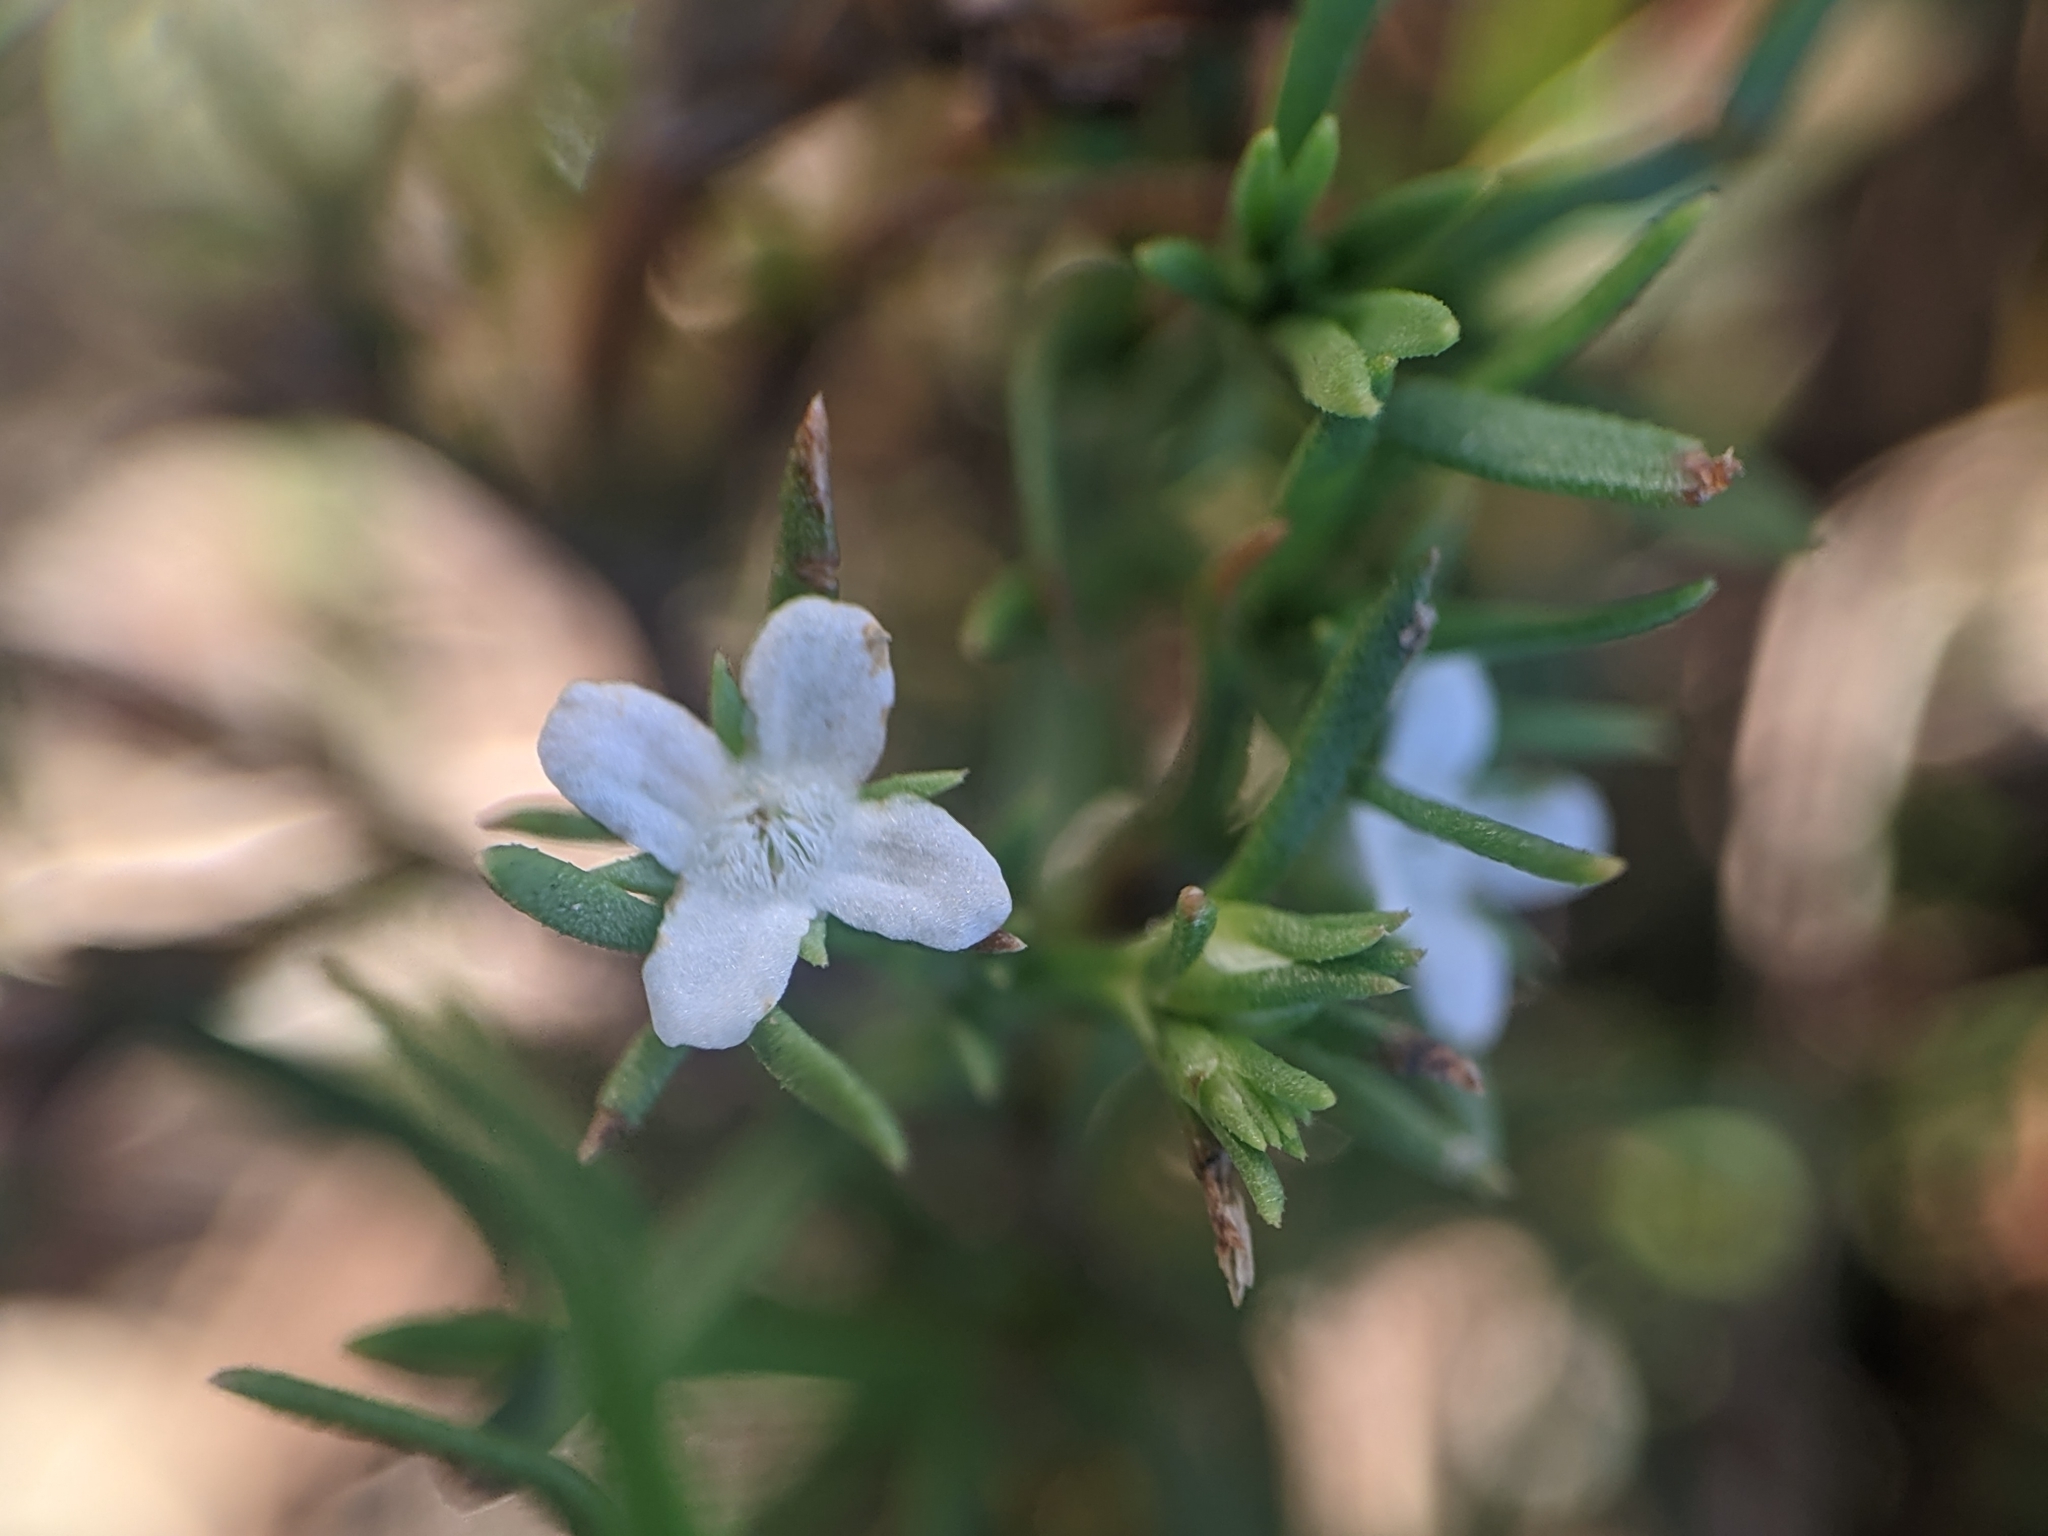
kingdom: Plantae
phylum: Tracheophyta
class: Magnoliopsida
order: Lamiales
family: Tetrachondraceae
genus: Polypremum
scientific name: Polypremum procumbens
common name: Juniper-leaf
